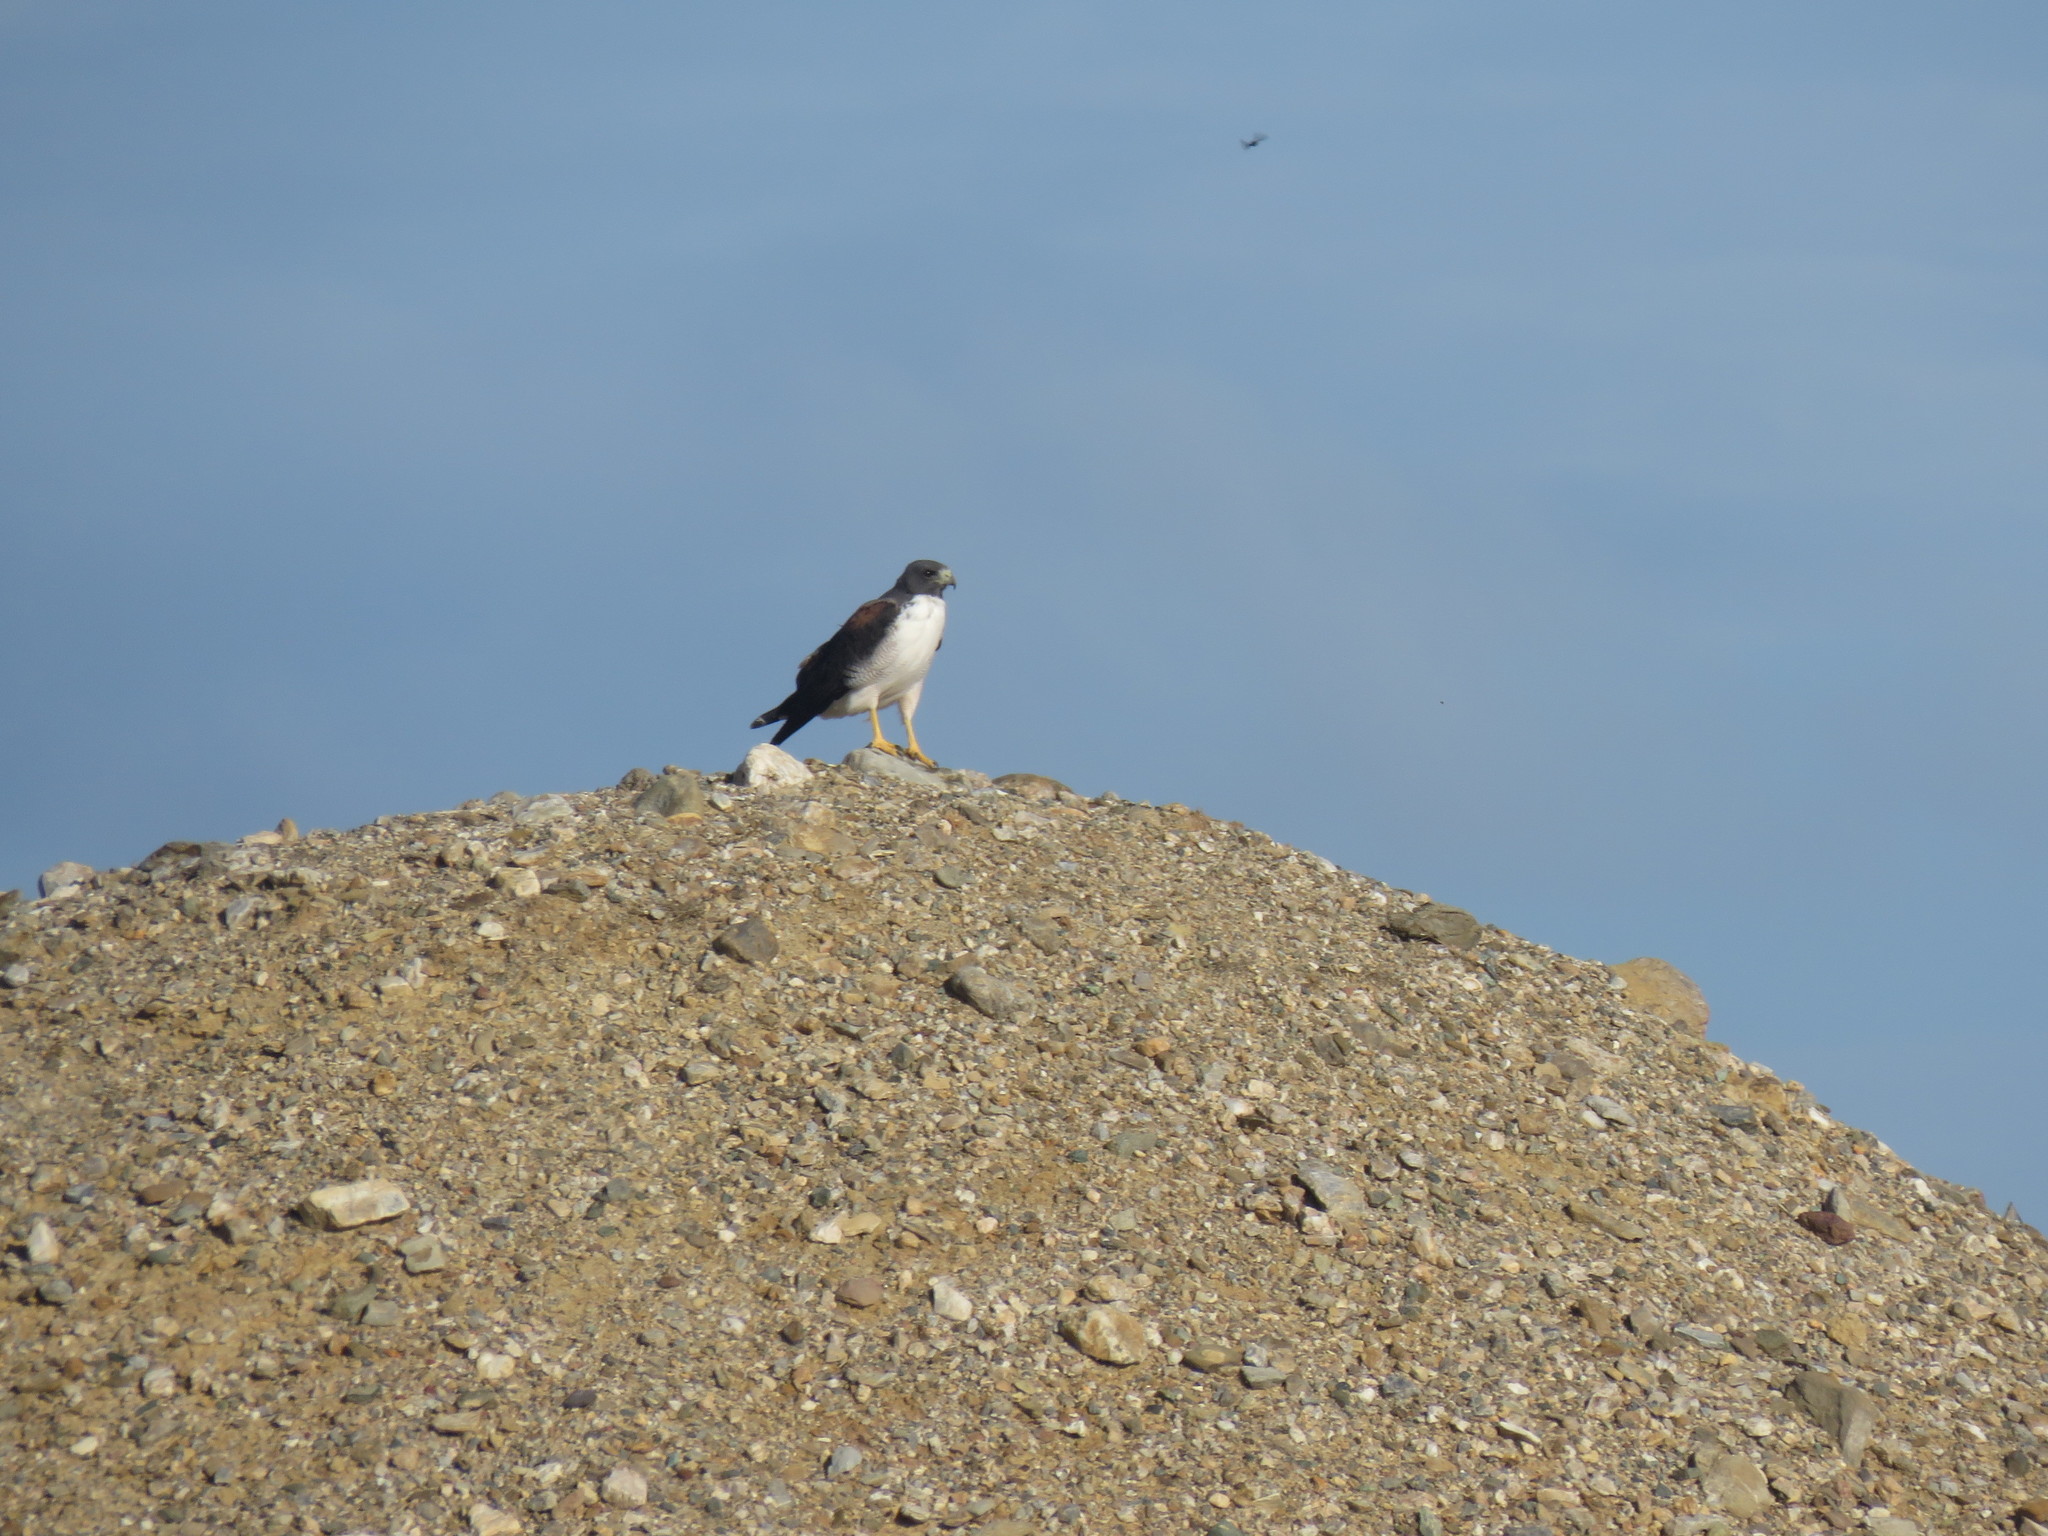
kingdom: Animalia
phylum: Chordata
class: Aves
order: Accipitriformes
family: Accipitridae
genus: Buteo
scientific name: Buteo albicaudatus
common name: White-tailed hawk
